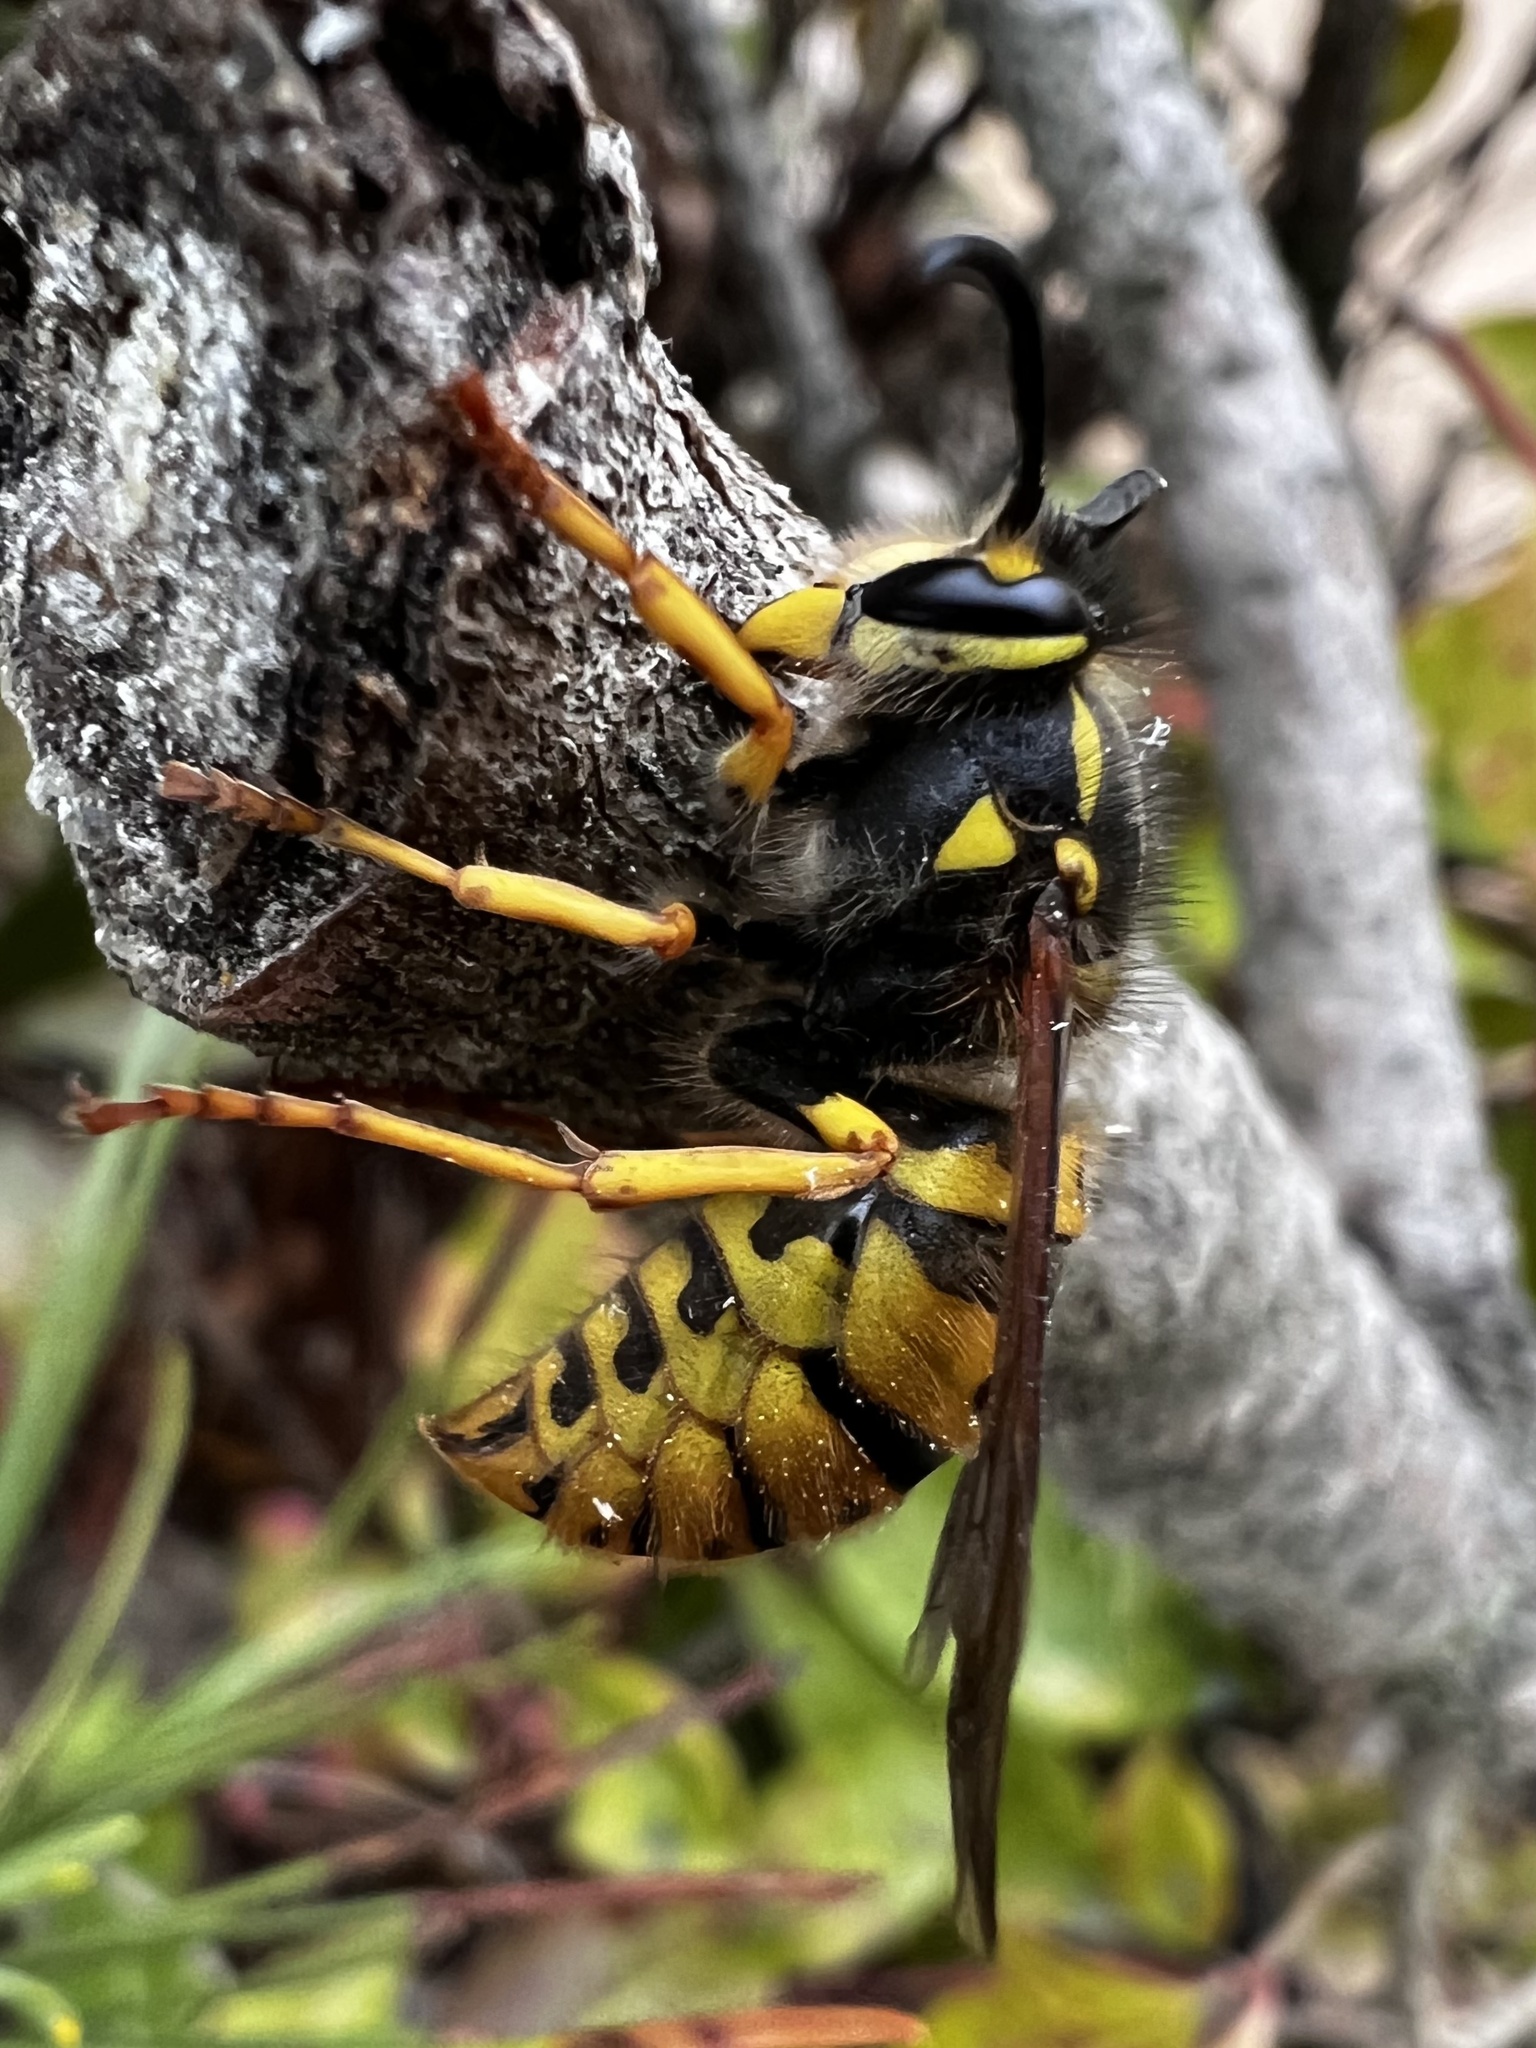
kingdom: Animalia
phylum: Arthropoda
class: Insecta
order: Hymenoptera
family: Vespidae
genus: Vespula
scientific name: Vespula germanica
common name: German wasp
